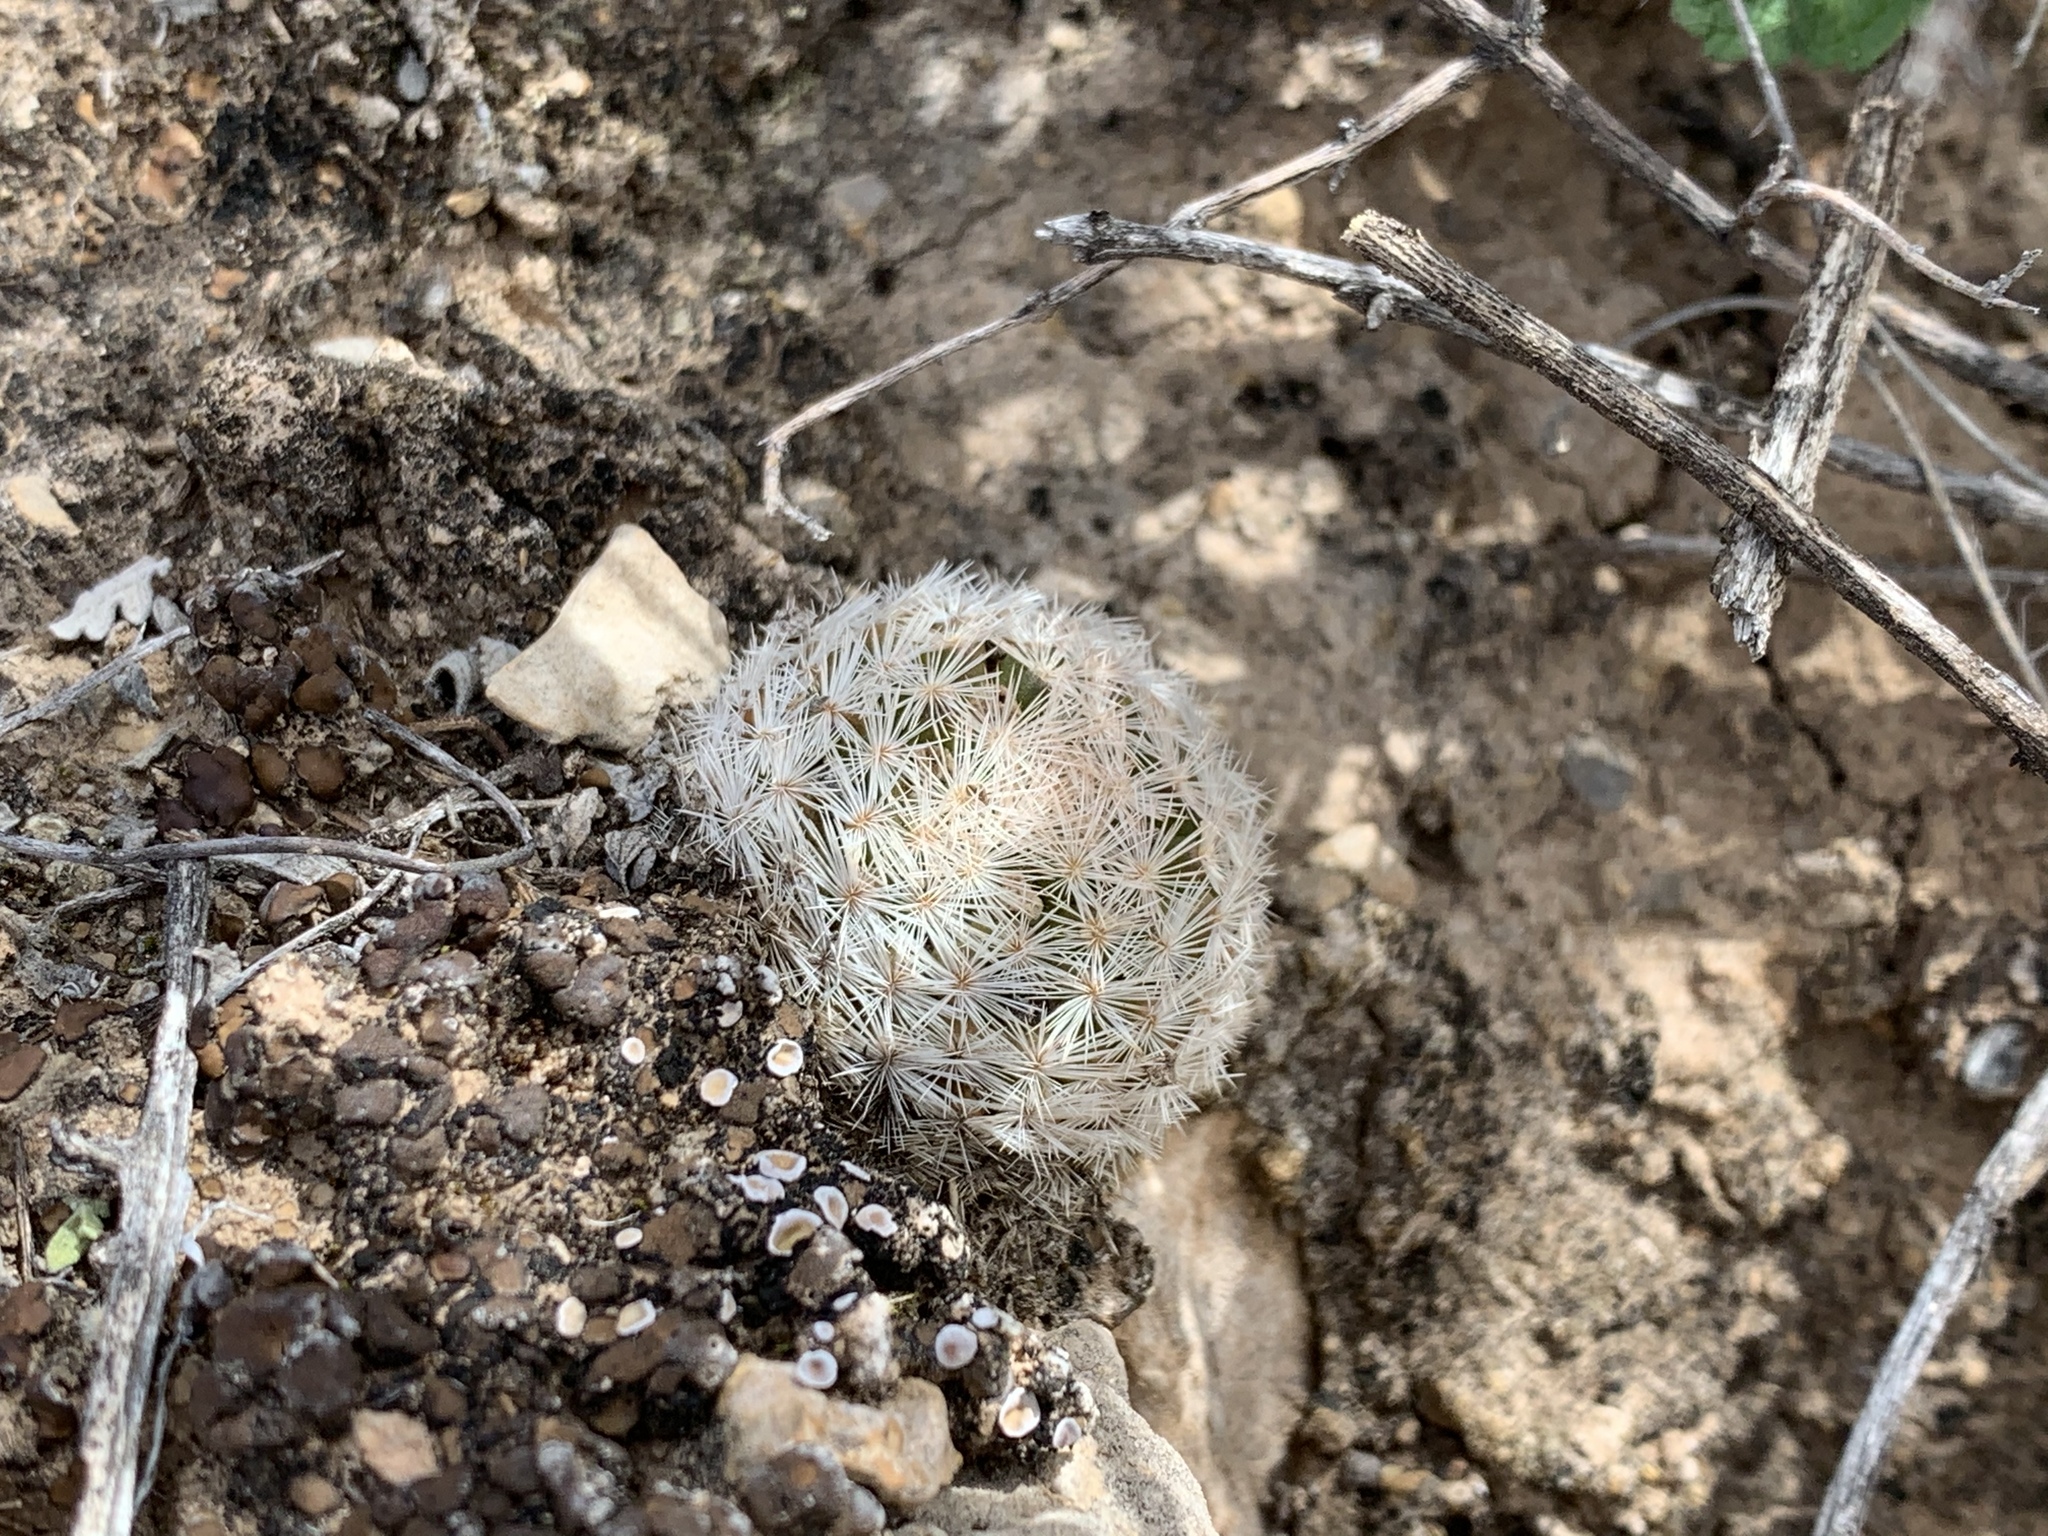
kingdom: Plantae
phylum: Tracheophyta
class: Magnoliopsida
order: Caryophyllales
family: Cactaceae
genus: Mammillaria
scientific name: Mammillaria lasiacantha
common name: Lace-spine nipple cactus
